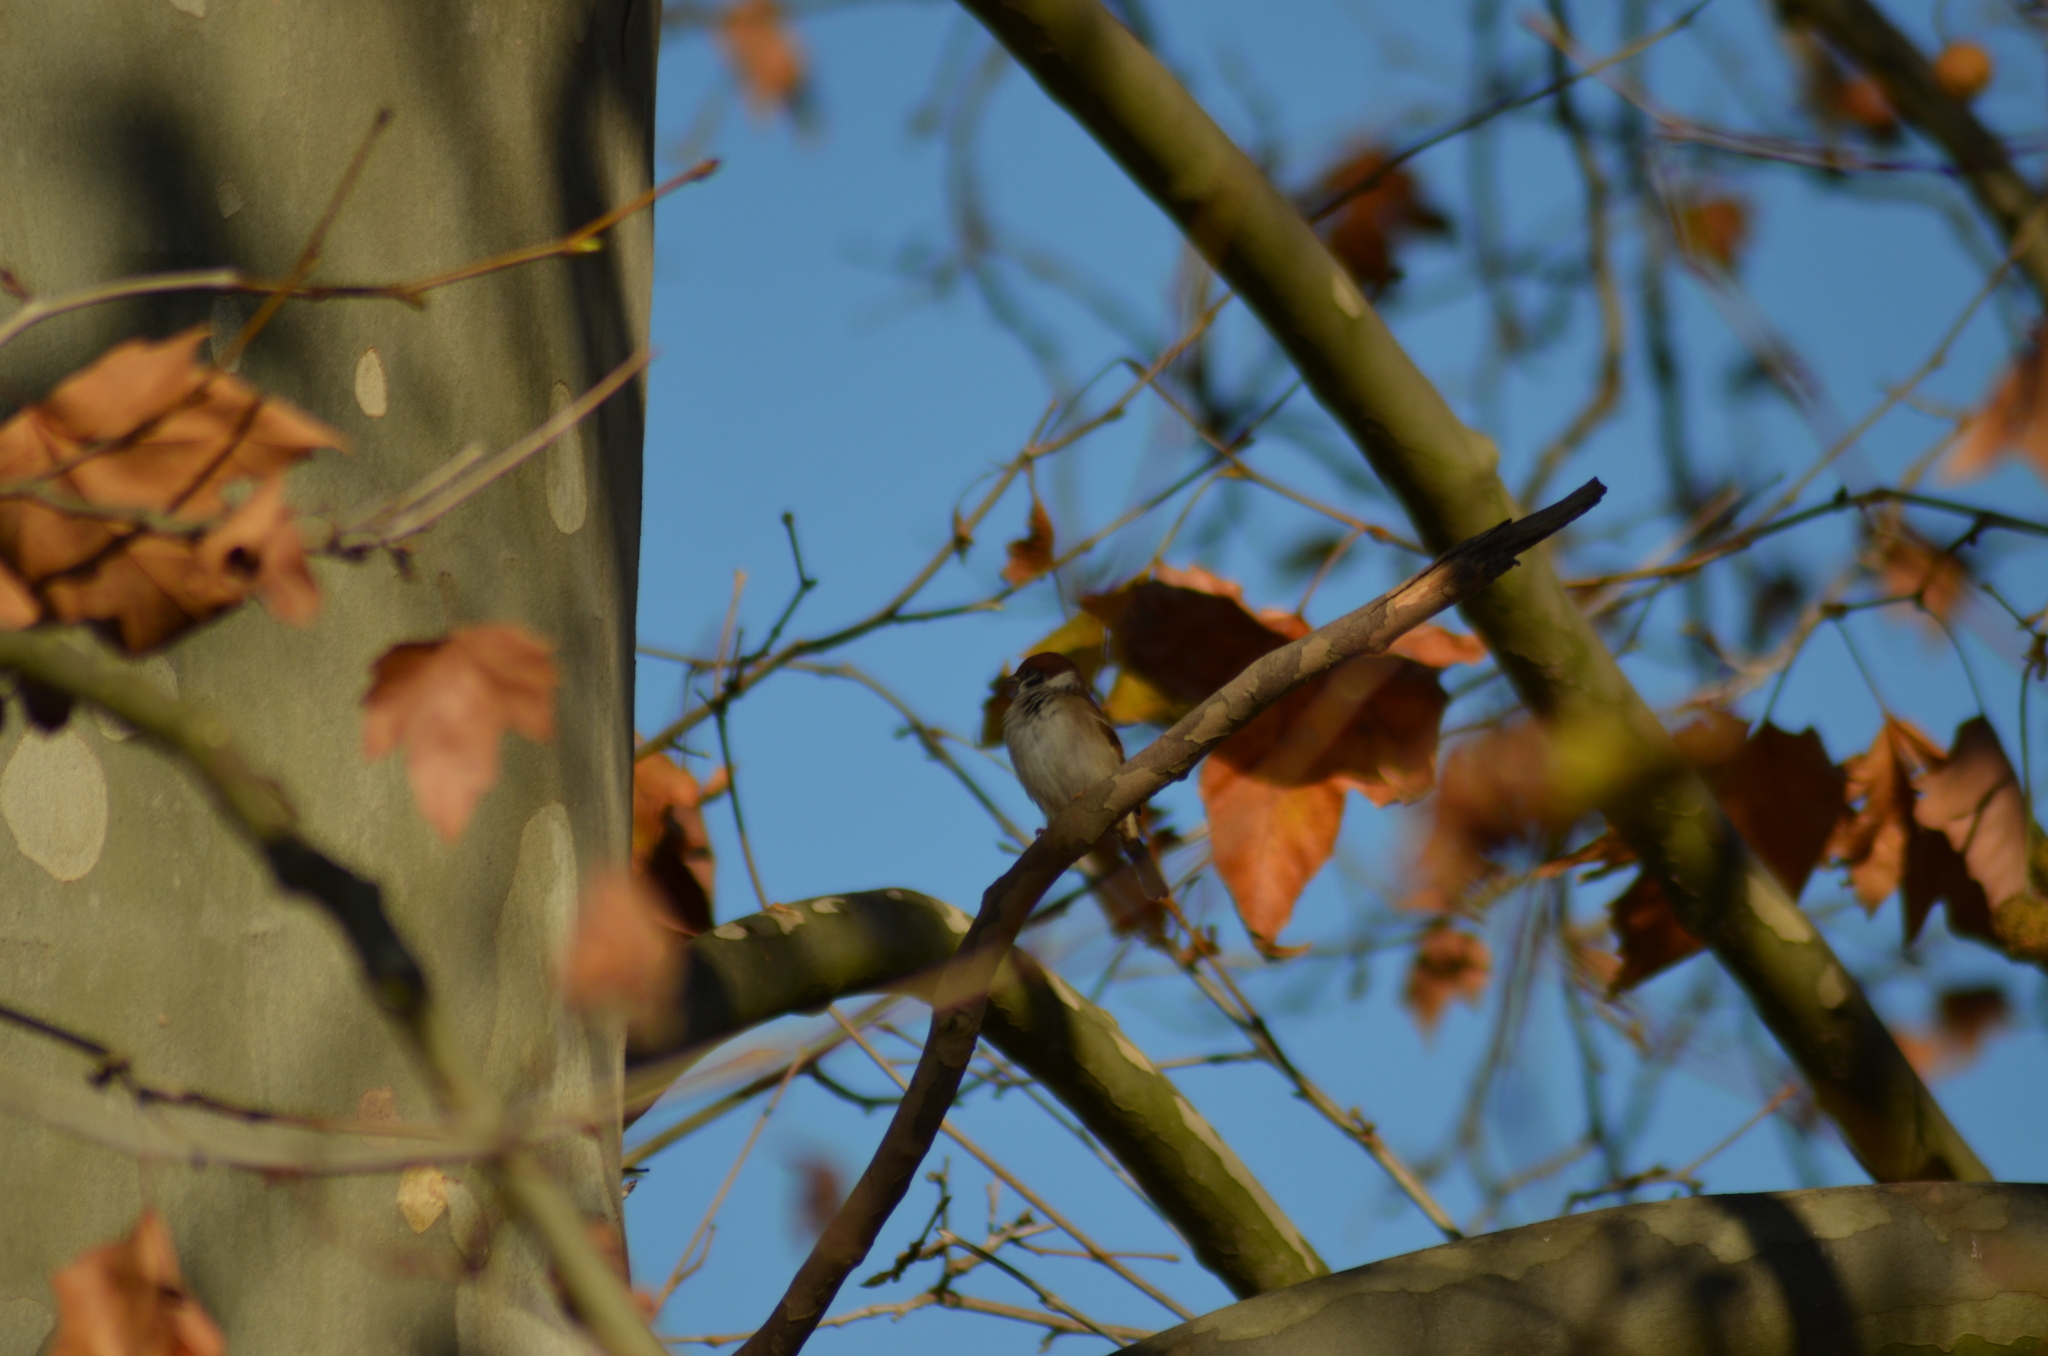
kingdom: Animalia
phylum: Chordata
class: Aves
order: Passeriformes
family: Passeridae
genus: Passer
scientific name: Passer montanus
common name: Eurasian tree sparrow
